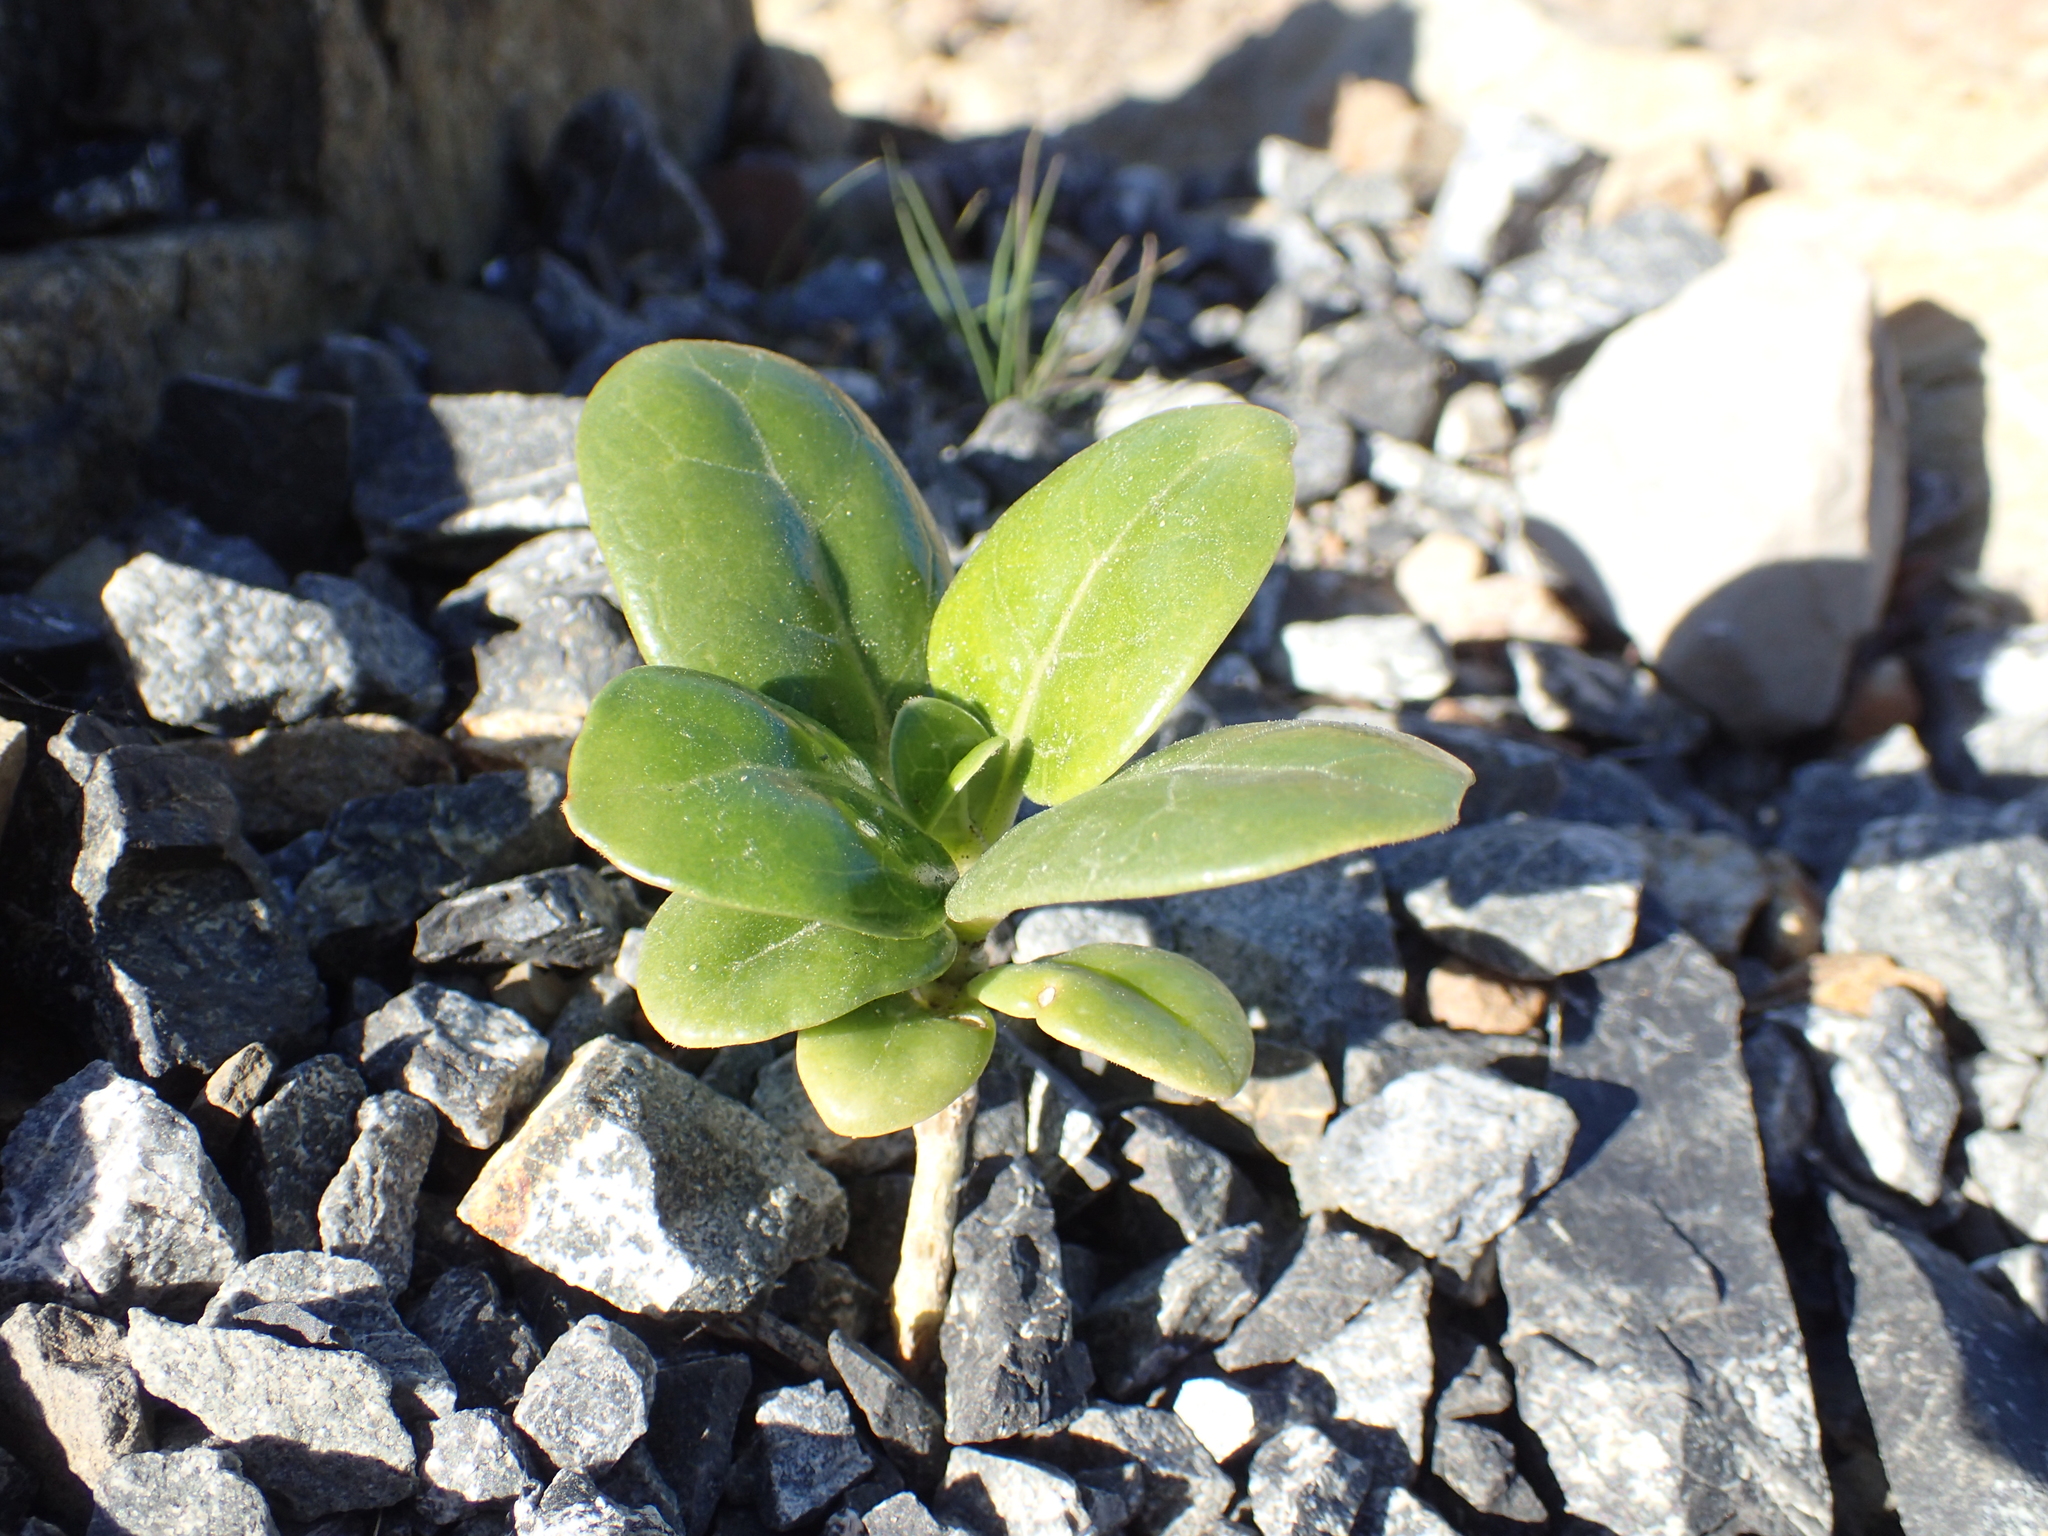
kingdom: Plantae
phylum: Tracheophyta
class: Magnoliopsida
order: Gentianales
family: Rubiaceae
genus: Coprosma
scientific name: Coprosma repens
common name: Tree bedstraw
